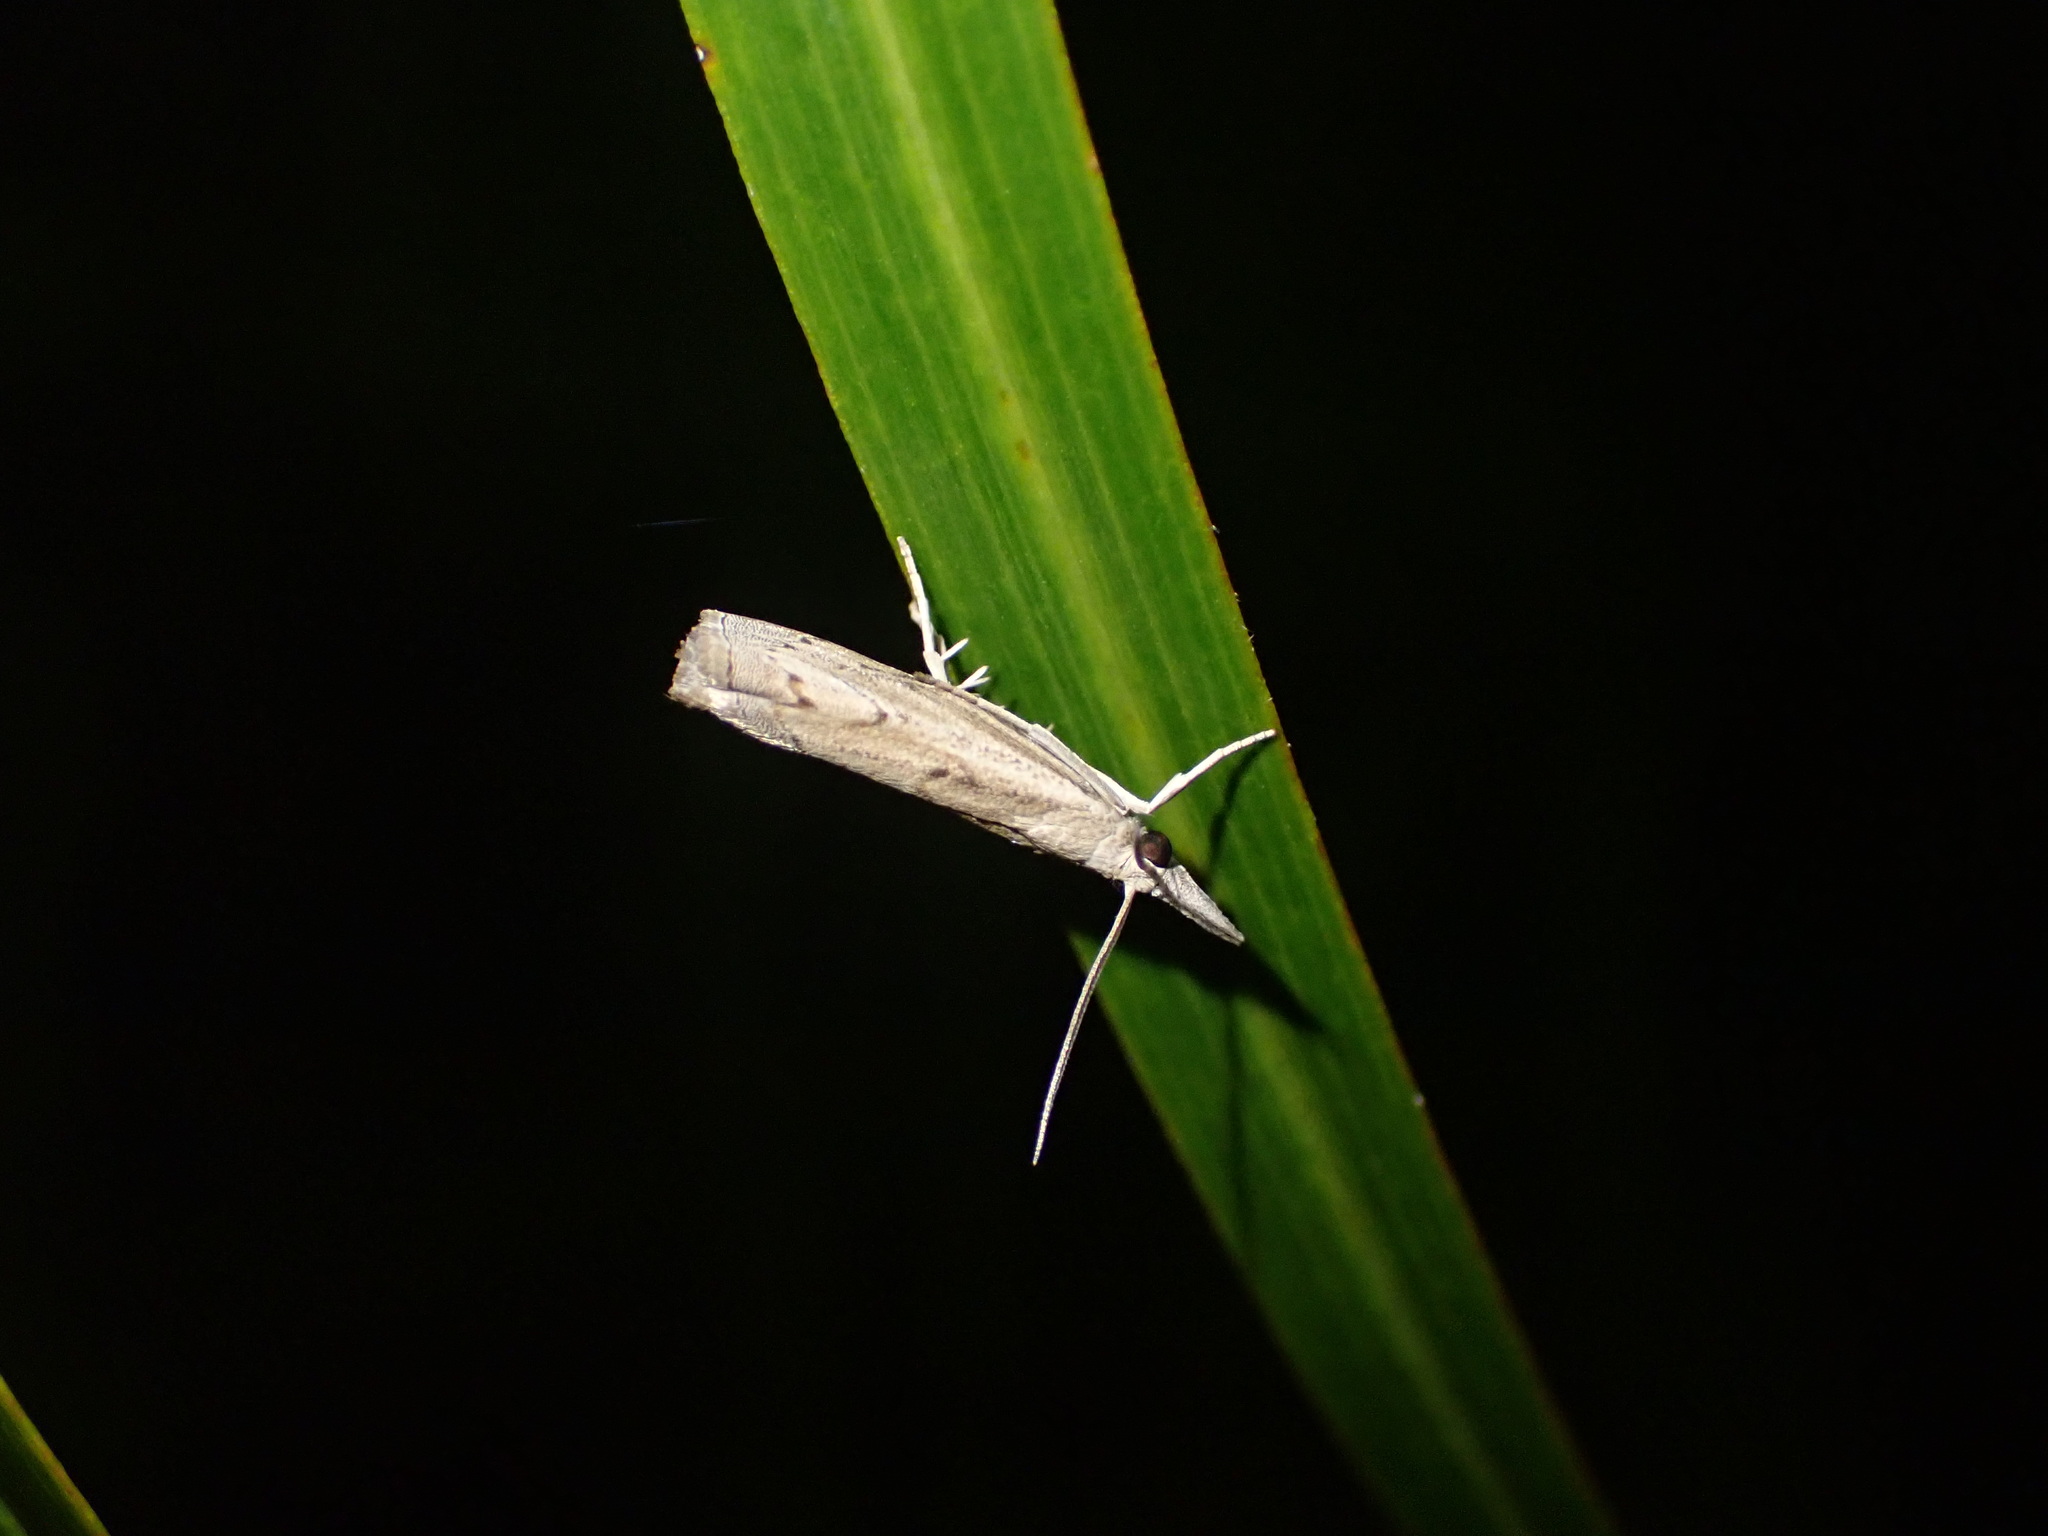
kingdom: Animalia
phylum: Arthropoda
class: Insecta
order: Lepidoptera
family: Crambidae
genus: Culladia
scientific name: Culladia cuneiferellus
